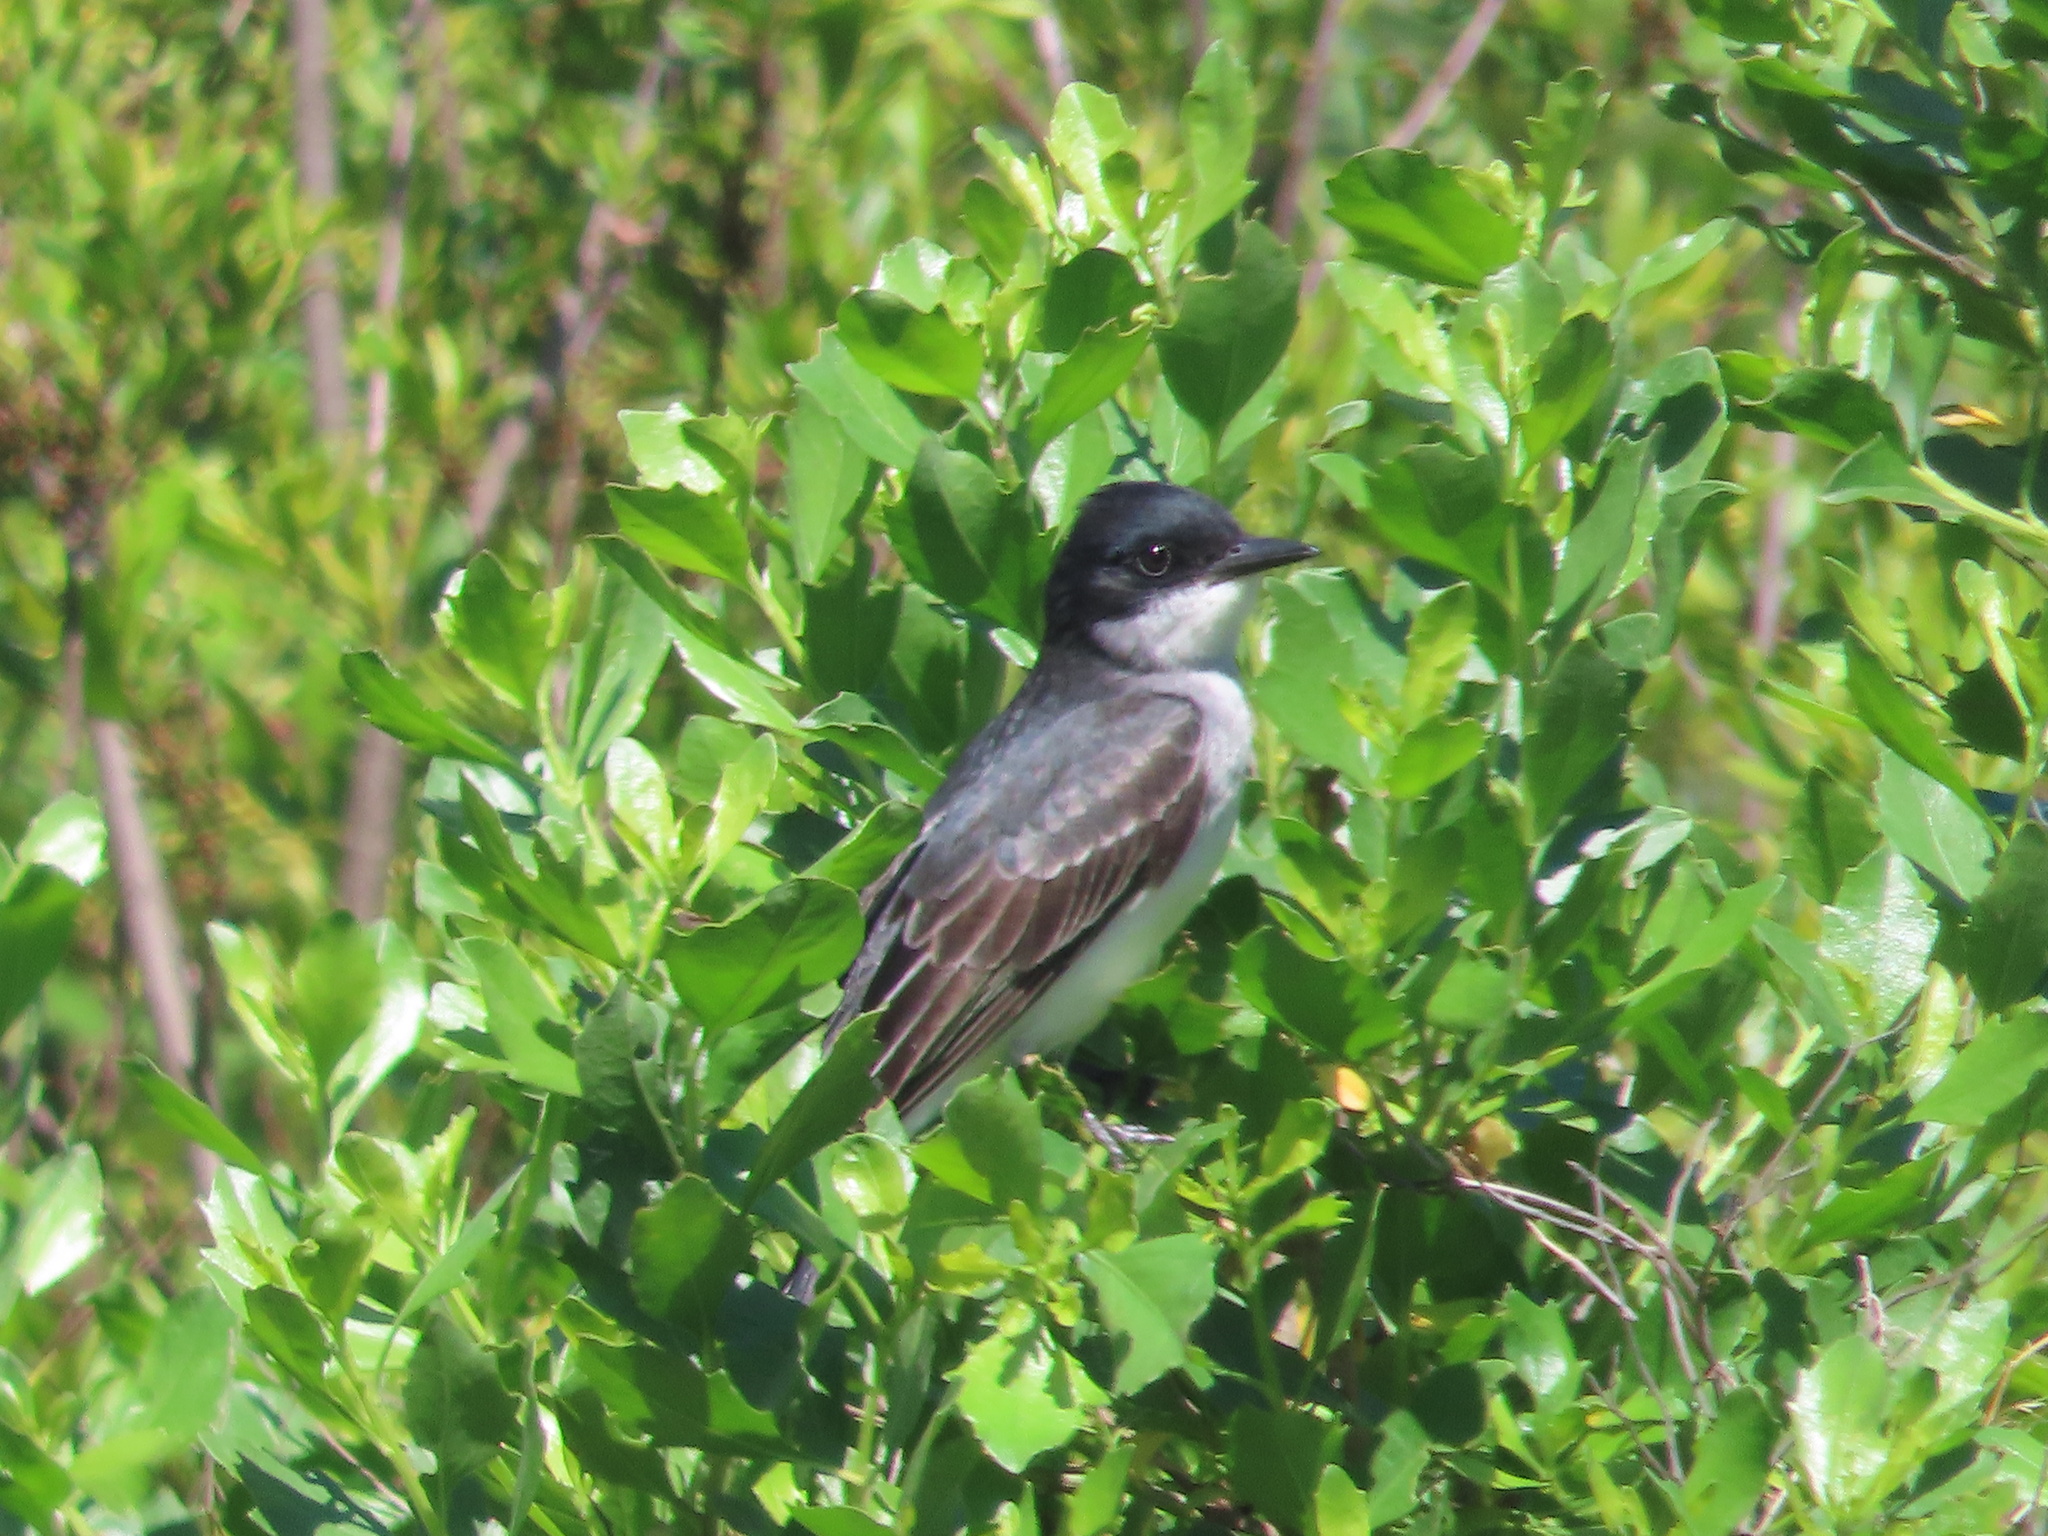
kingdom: Animalia
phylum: Chordata
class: Aves
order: Passeriformes
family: Tyrannidae
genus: Tyrannus
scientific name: Tyrannus tyrannus
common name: Eastern kingbird
